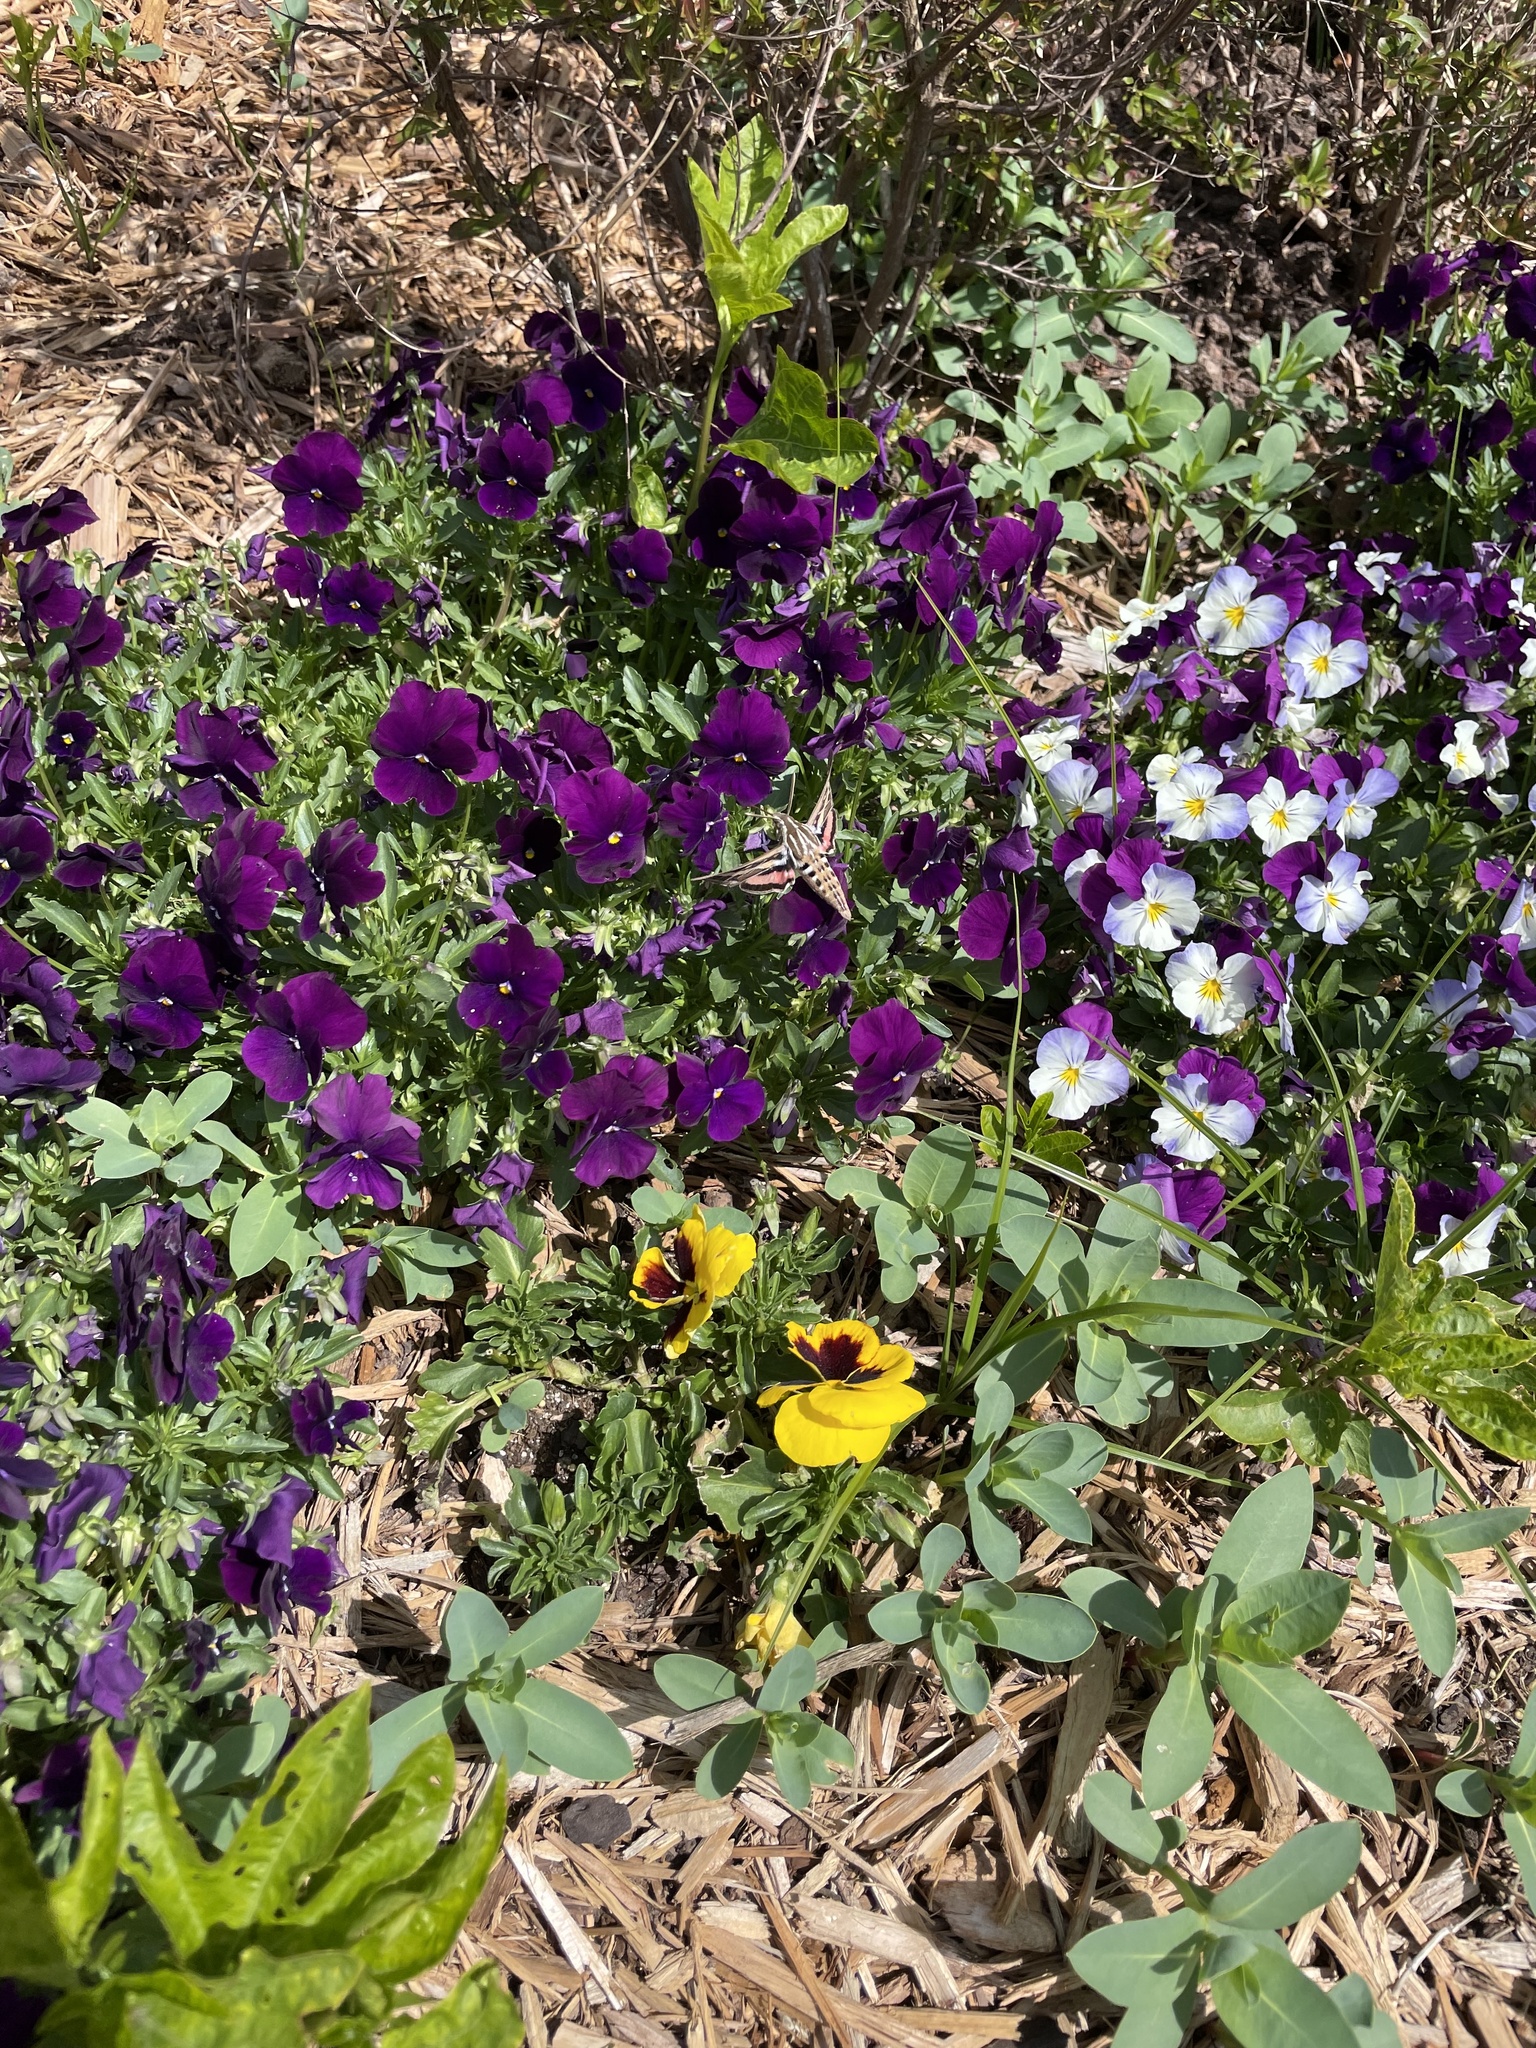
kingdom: Animalia
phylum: Arthropoda
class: Insecta
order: Lepidoptera
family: Sphingidae
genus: Hyles
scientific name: Hyles lineata
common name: White-lined sphinx
